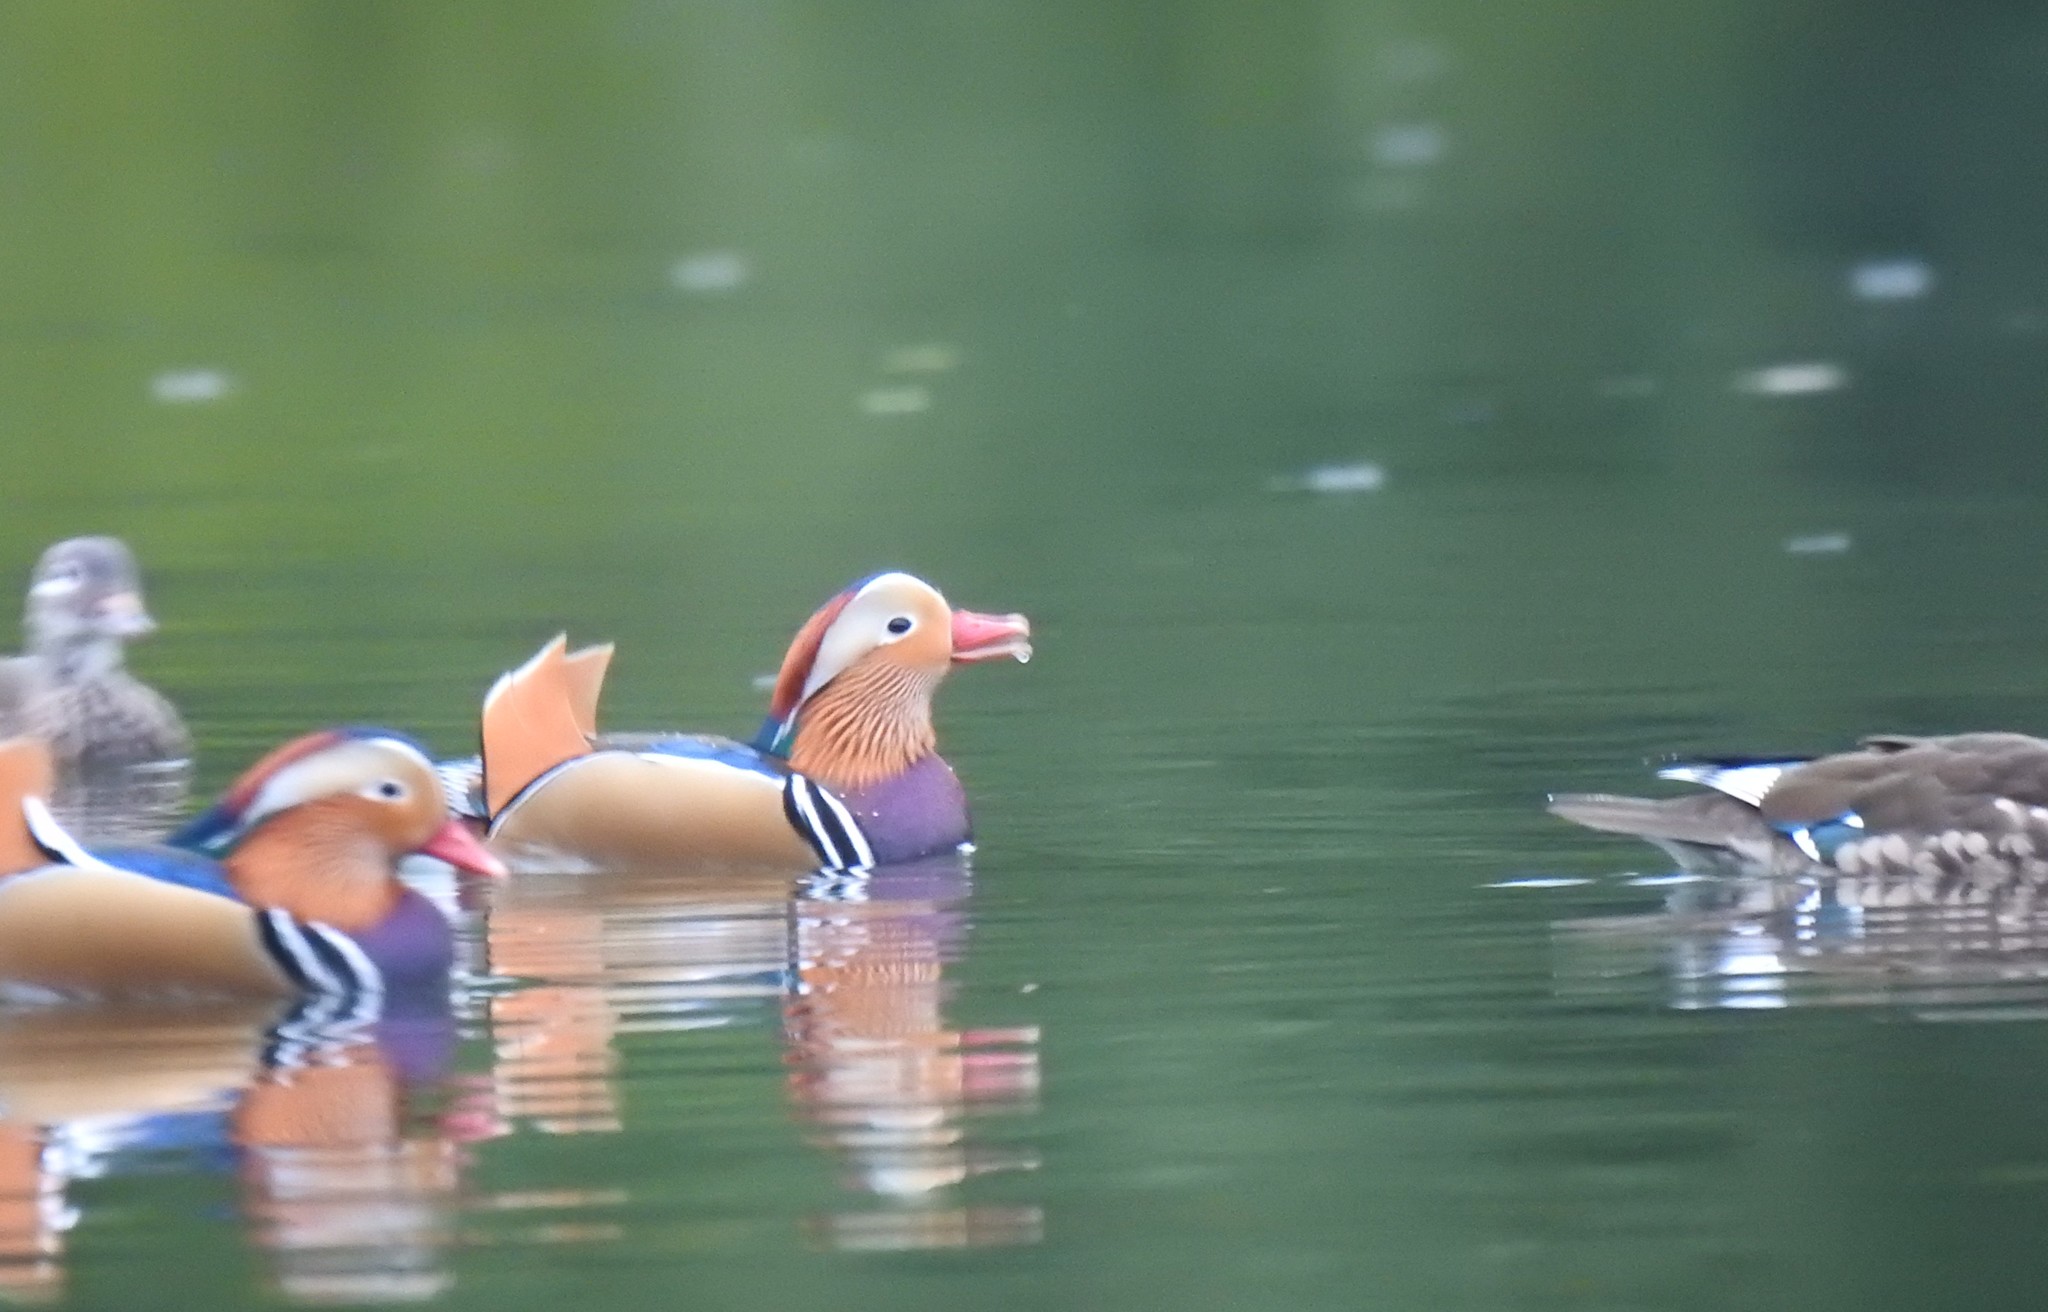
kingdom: Animalia
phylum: Chordata
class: Aves
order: Anseriformes
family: Anatidae
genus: Aix
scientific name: Aix galericulata
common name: Mandarin duck
